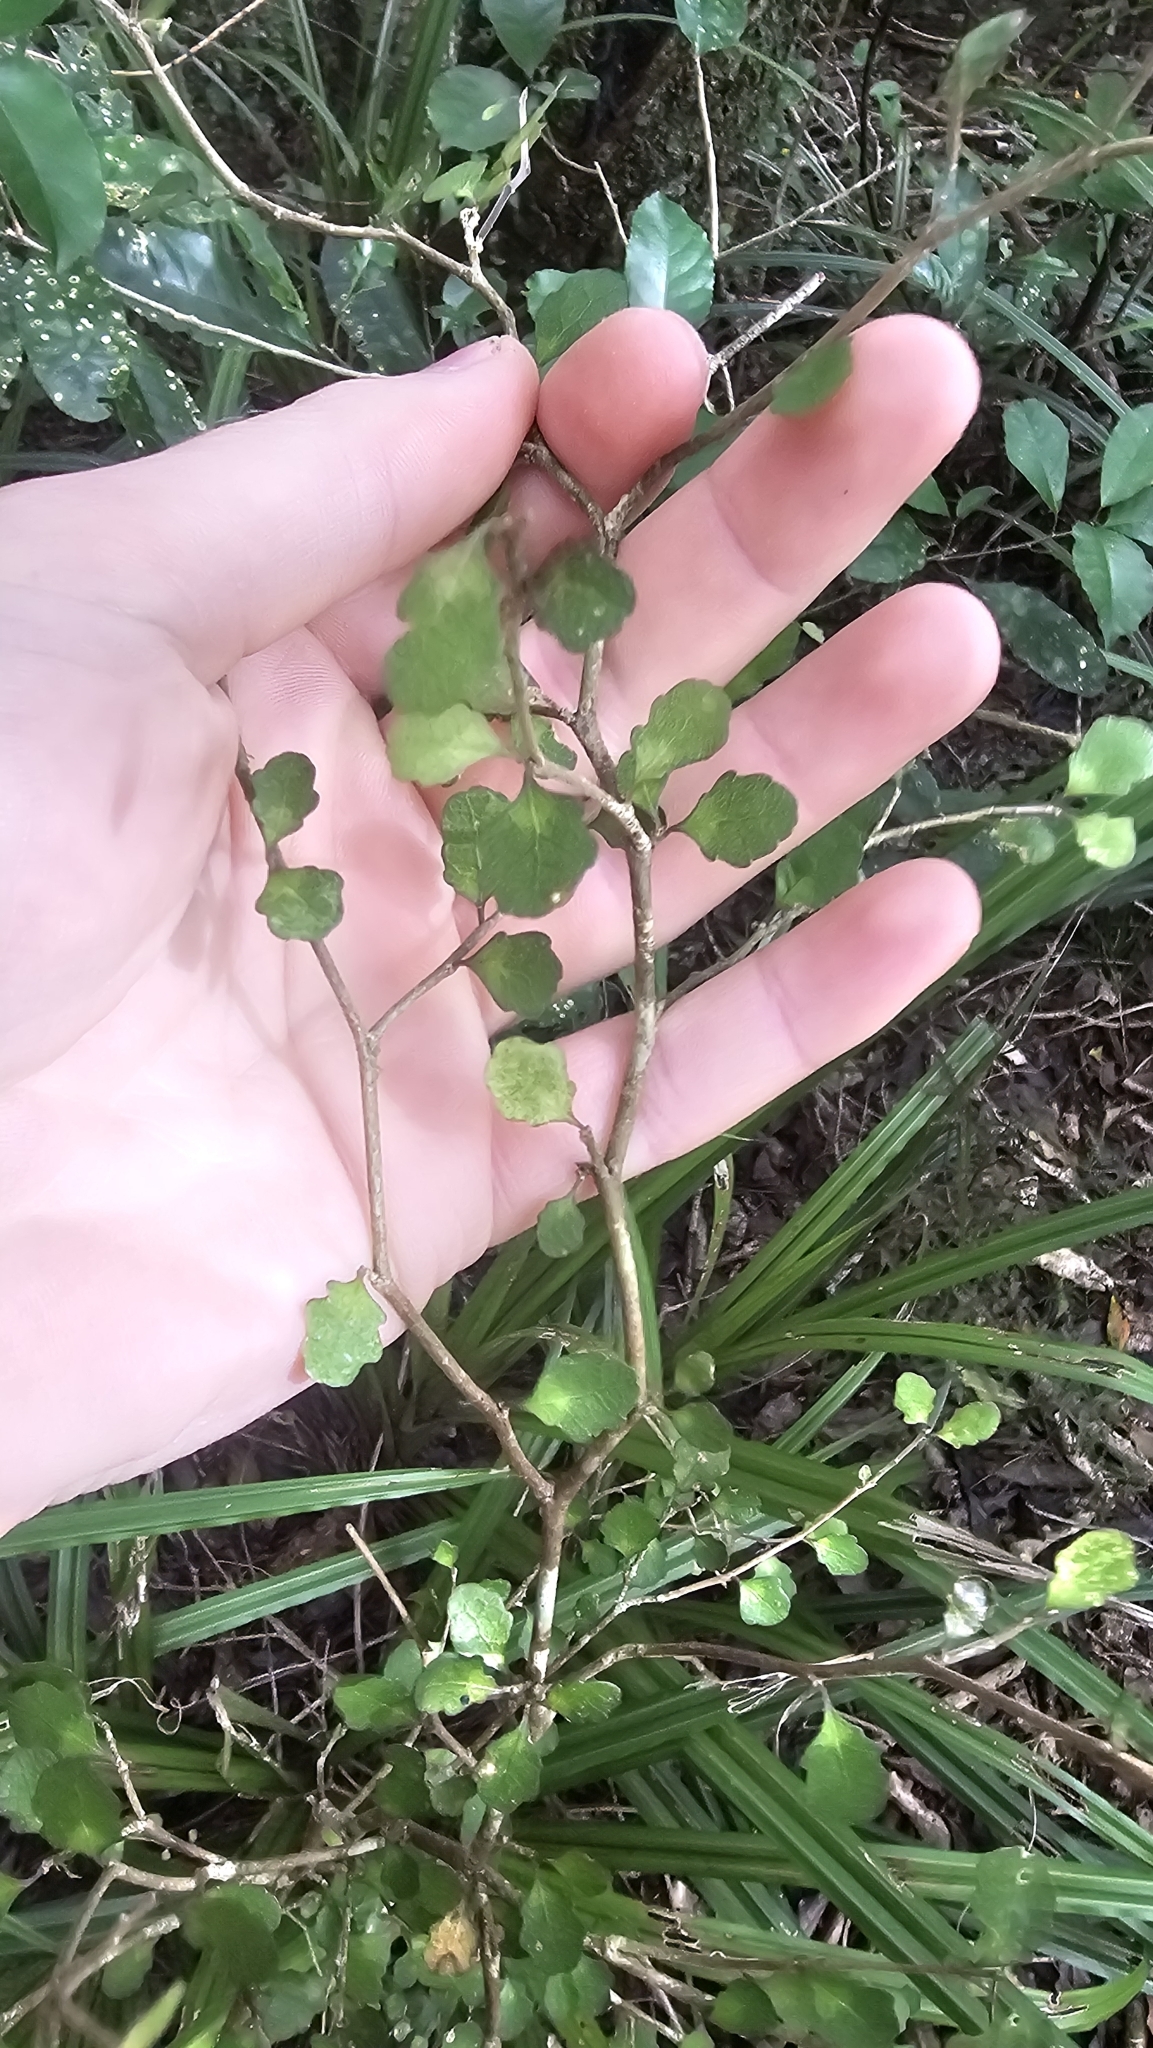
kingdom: Plantae
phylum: Tracheophyta
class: Magnoliopsida
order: Malpighiales
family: Violaceae
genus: Melicytus
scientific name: Melicytus micranthus
